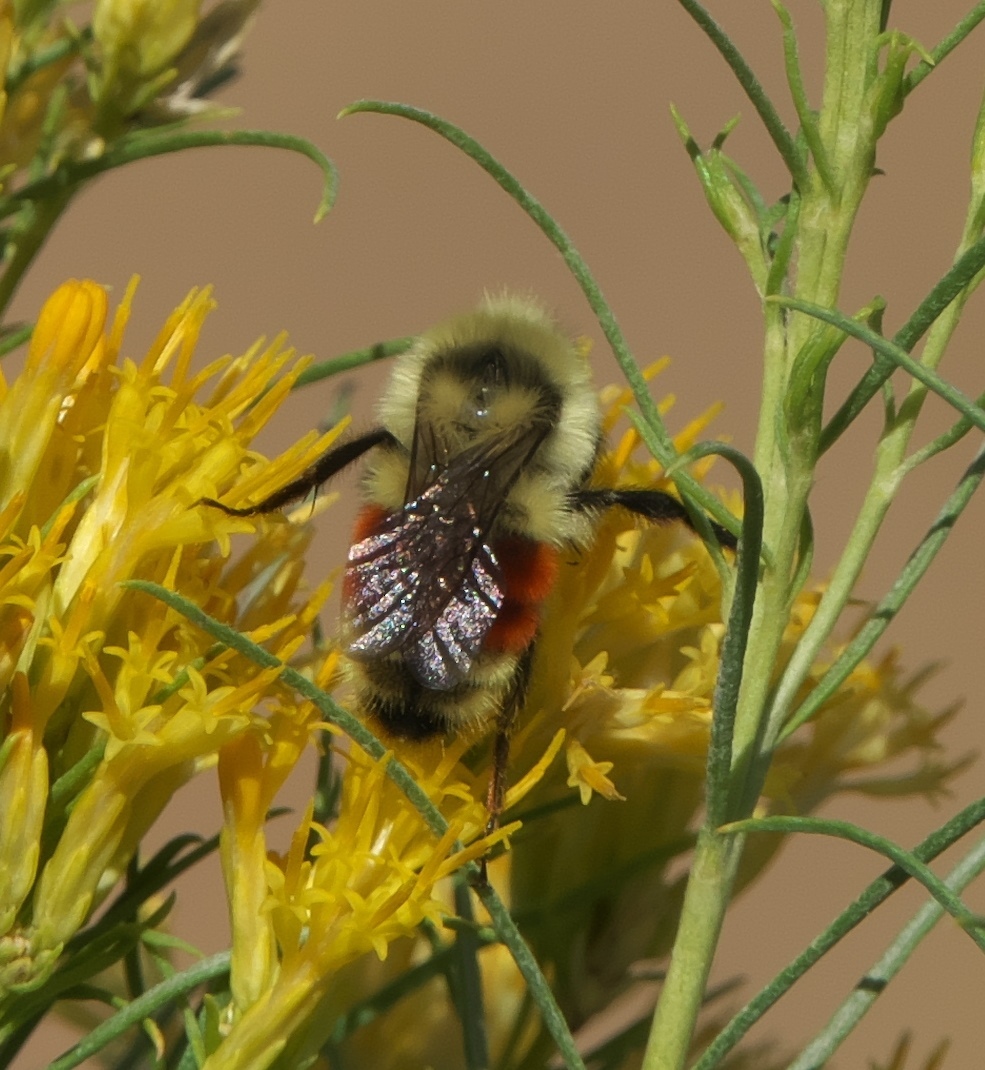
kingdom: Animalia
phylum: Arthropoda
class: Insecta
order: Hymenoptera
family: Apidae
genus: Bombus
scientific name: Bombus huntii
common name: Hunt bumble bee
